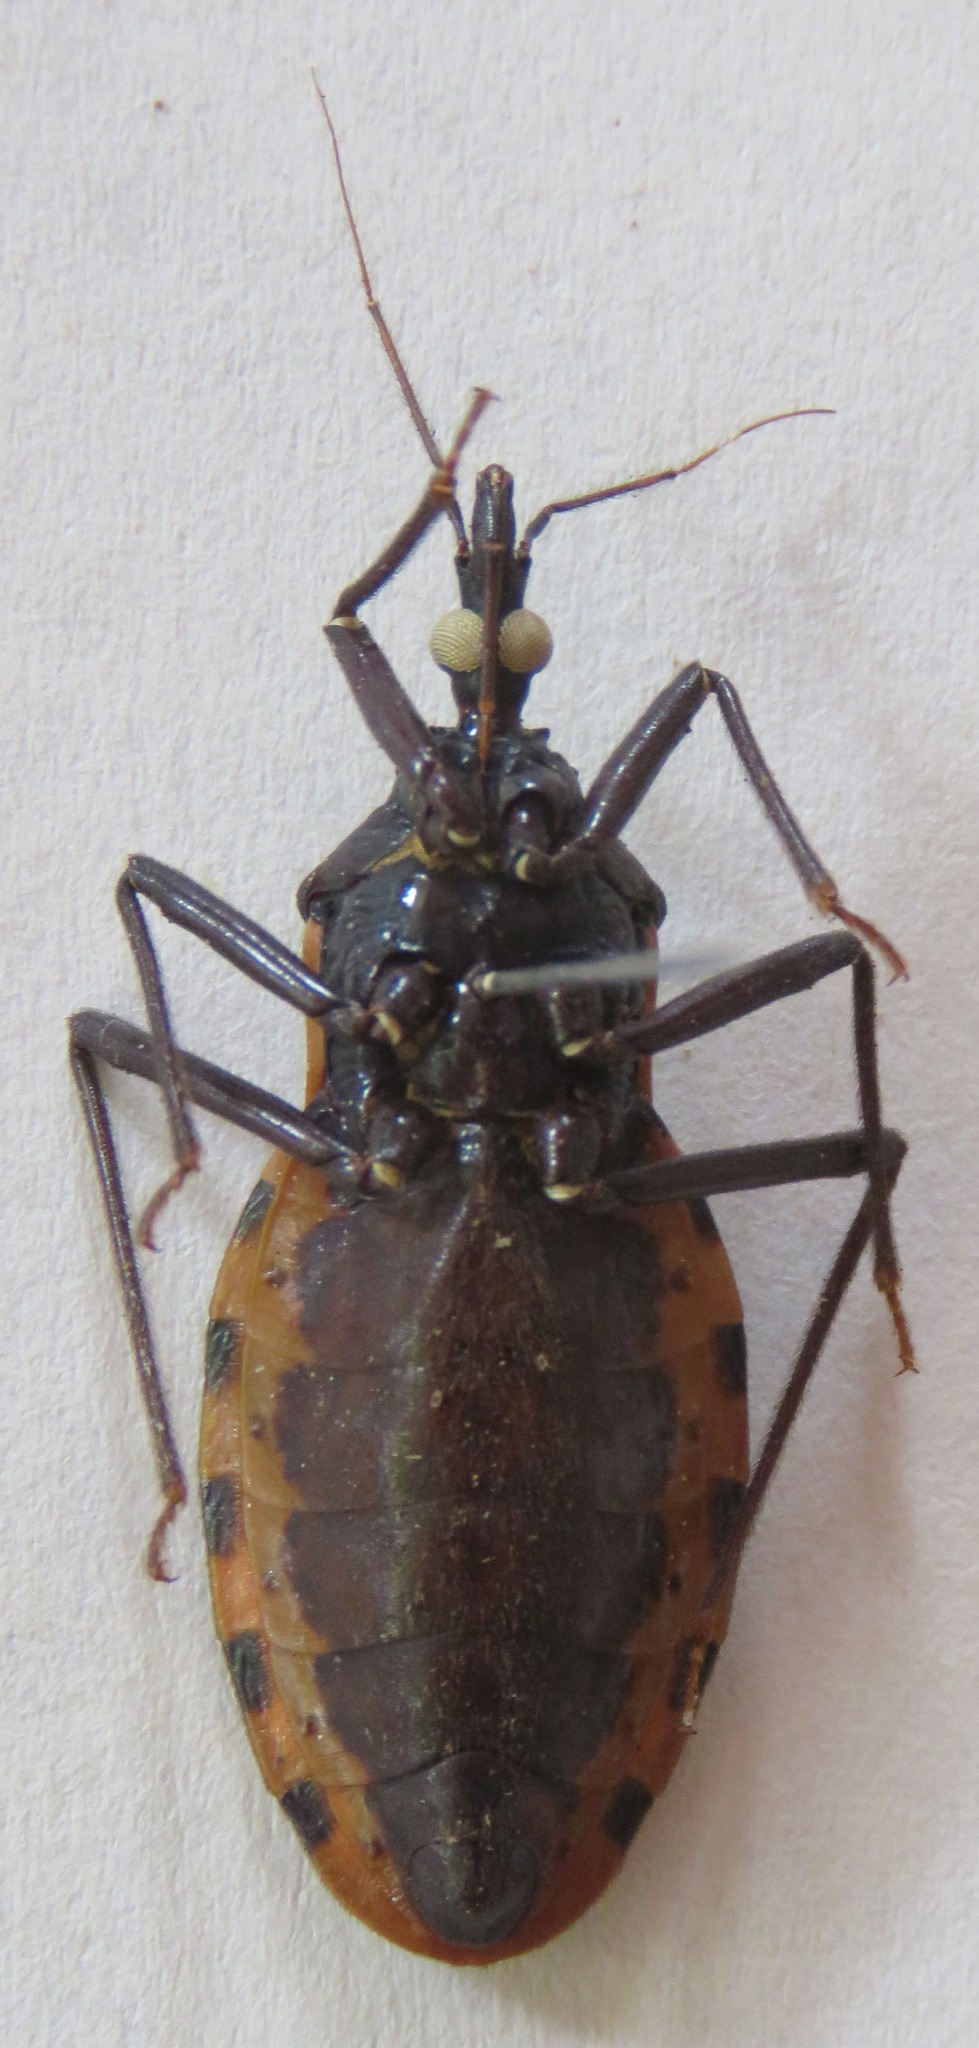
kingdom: Animalia
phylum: Arthropoda
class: Insecta
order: Hemiptera
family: Reduviidae
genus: Meccus
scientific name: Meccus dimidiatus
